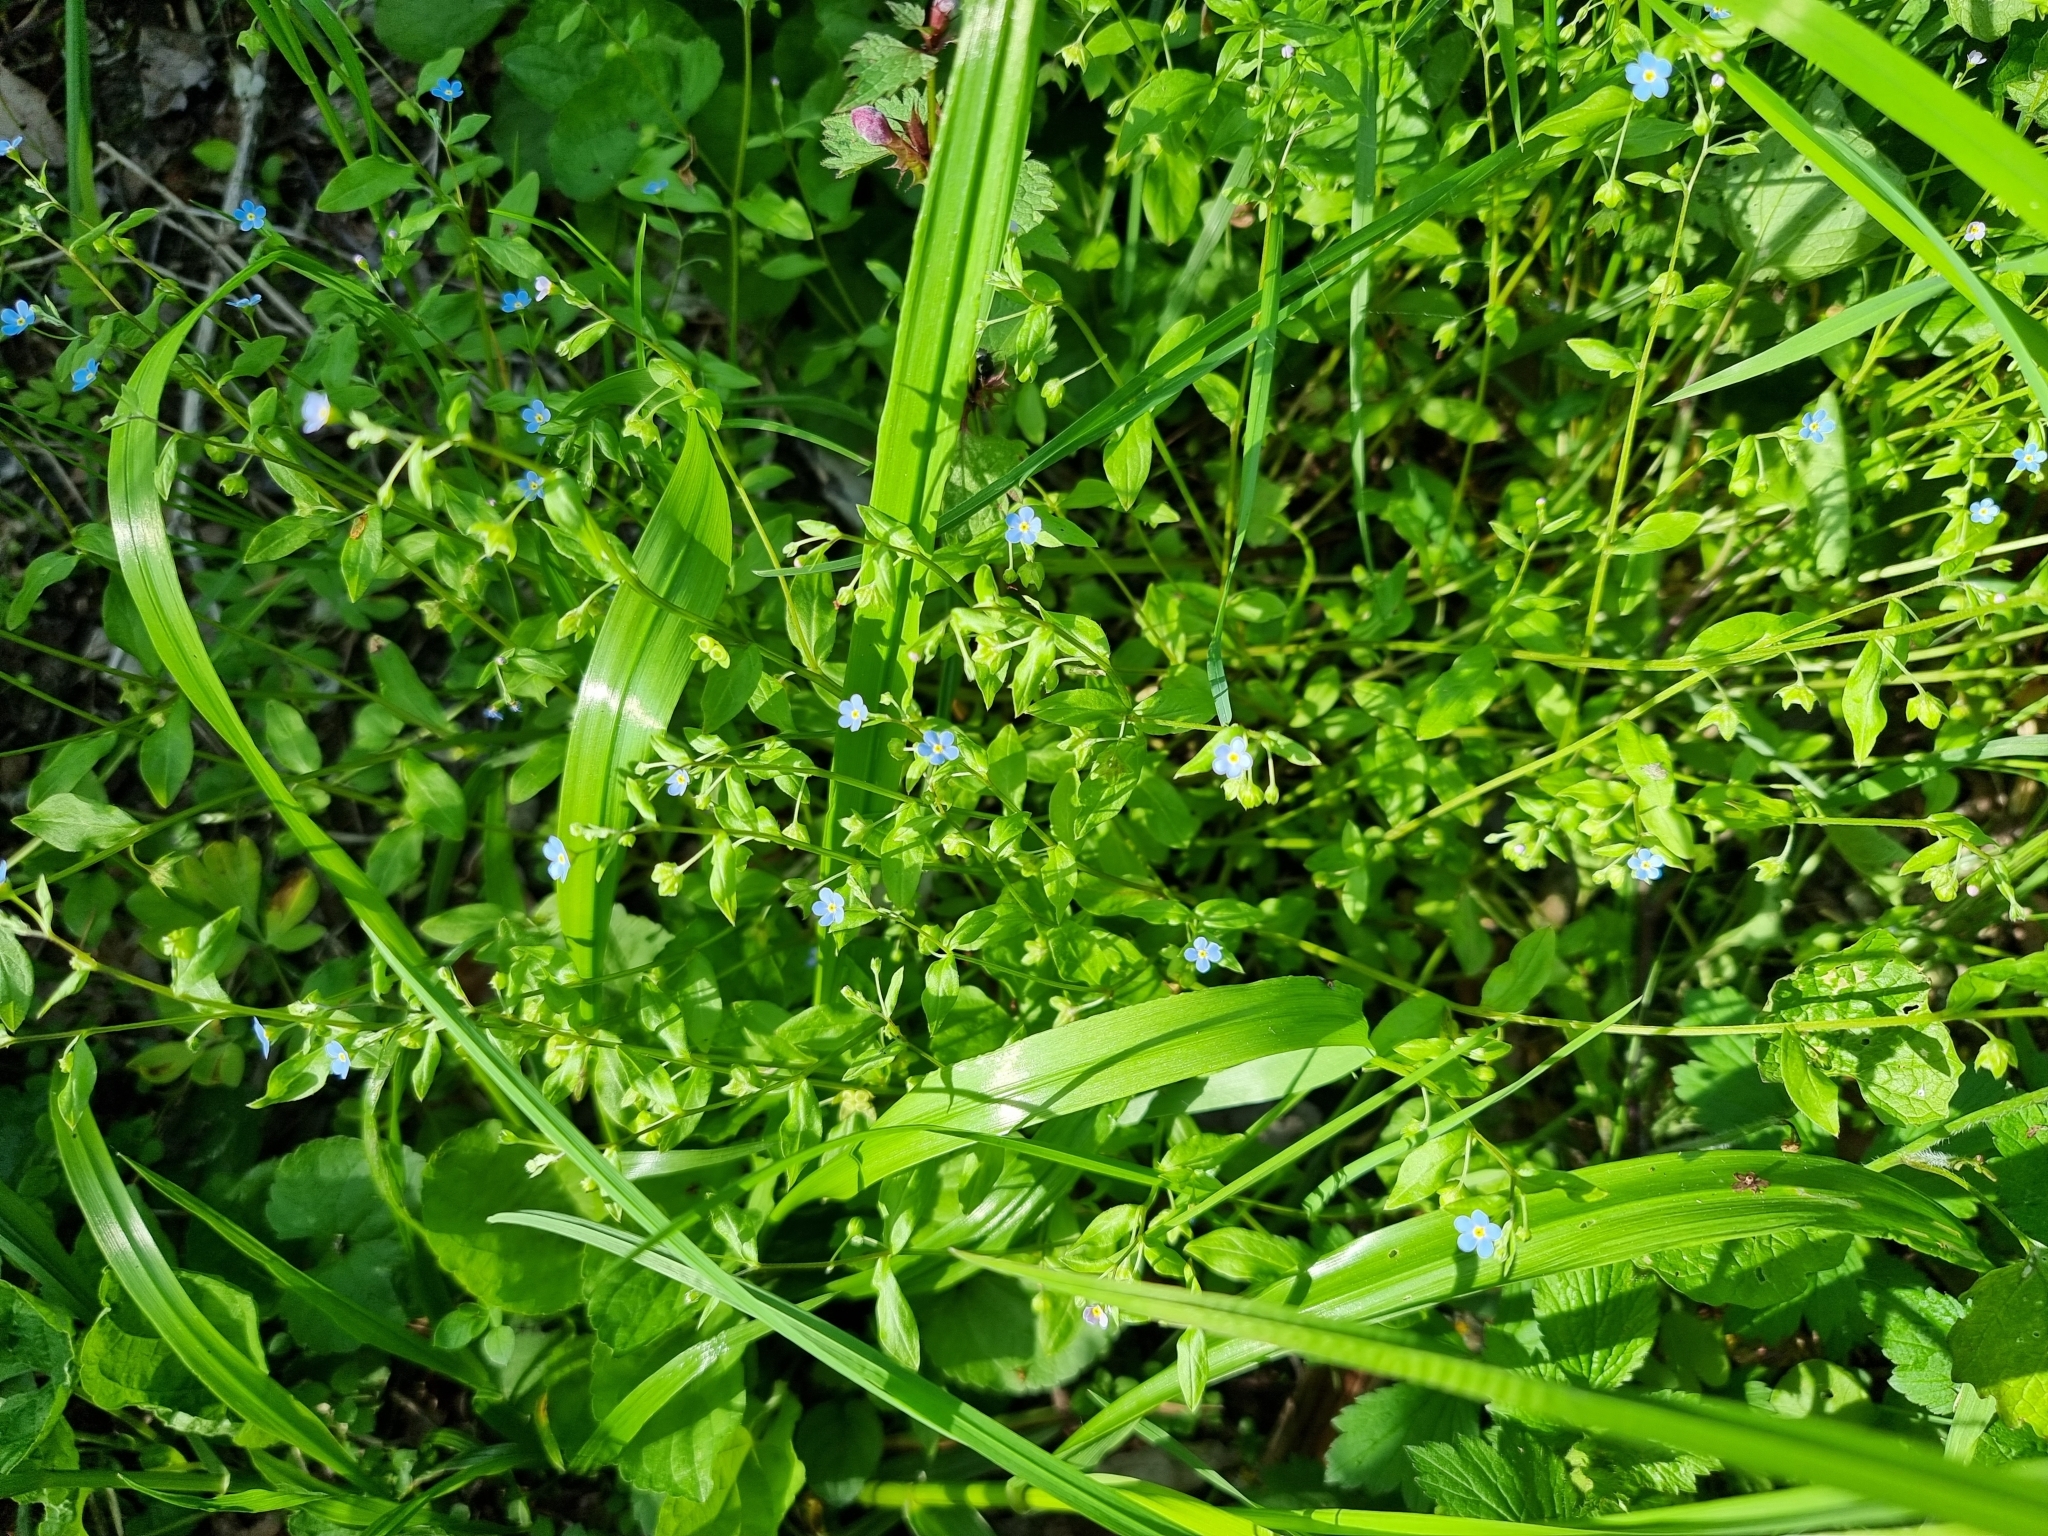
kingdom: Plantae
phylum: Tracheophyta
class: Magnoliopsida
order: Boraginales
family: Boraginaceae
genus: Memoremea
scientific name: Memoremea scorpioides
